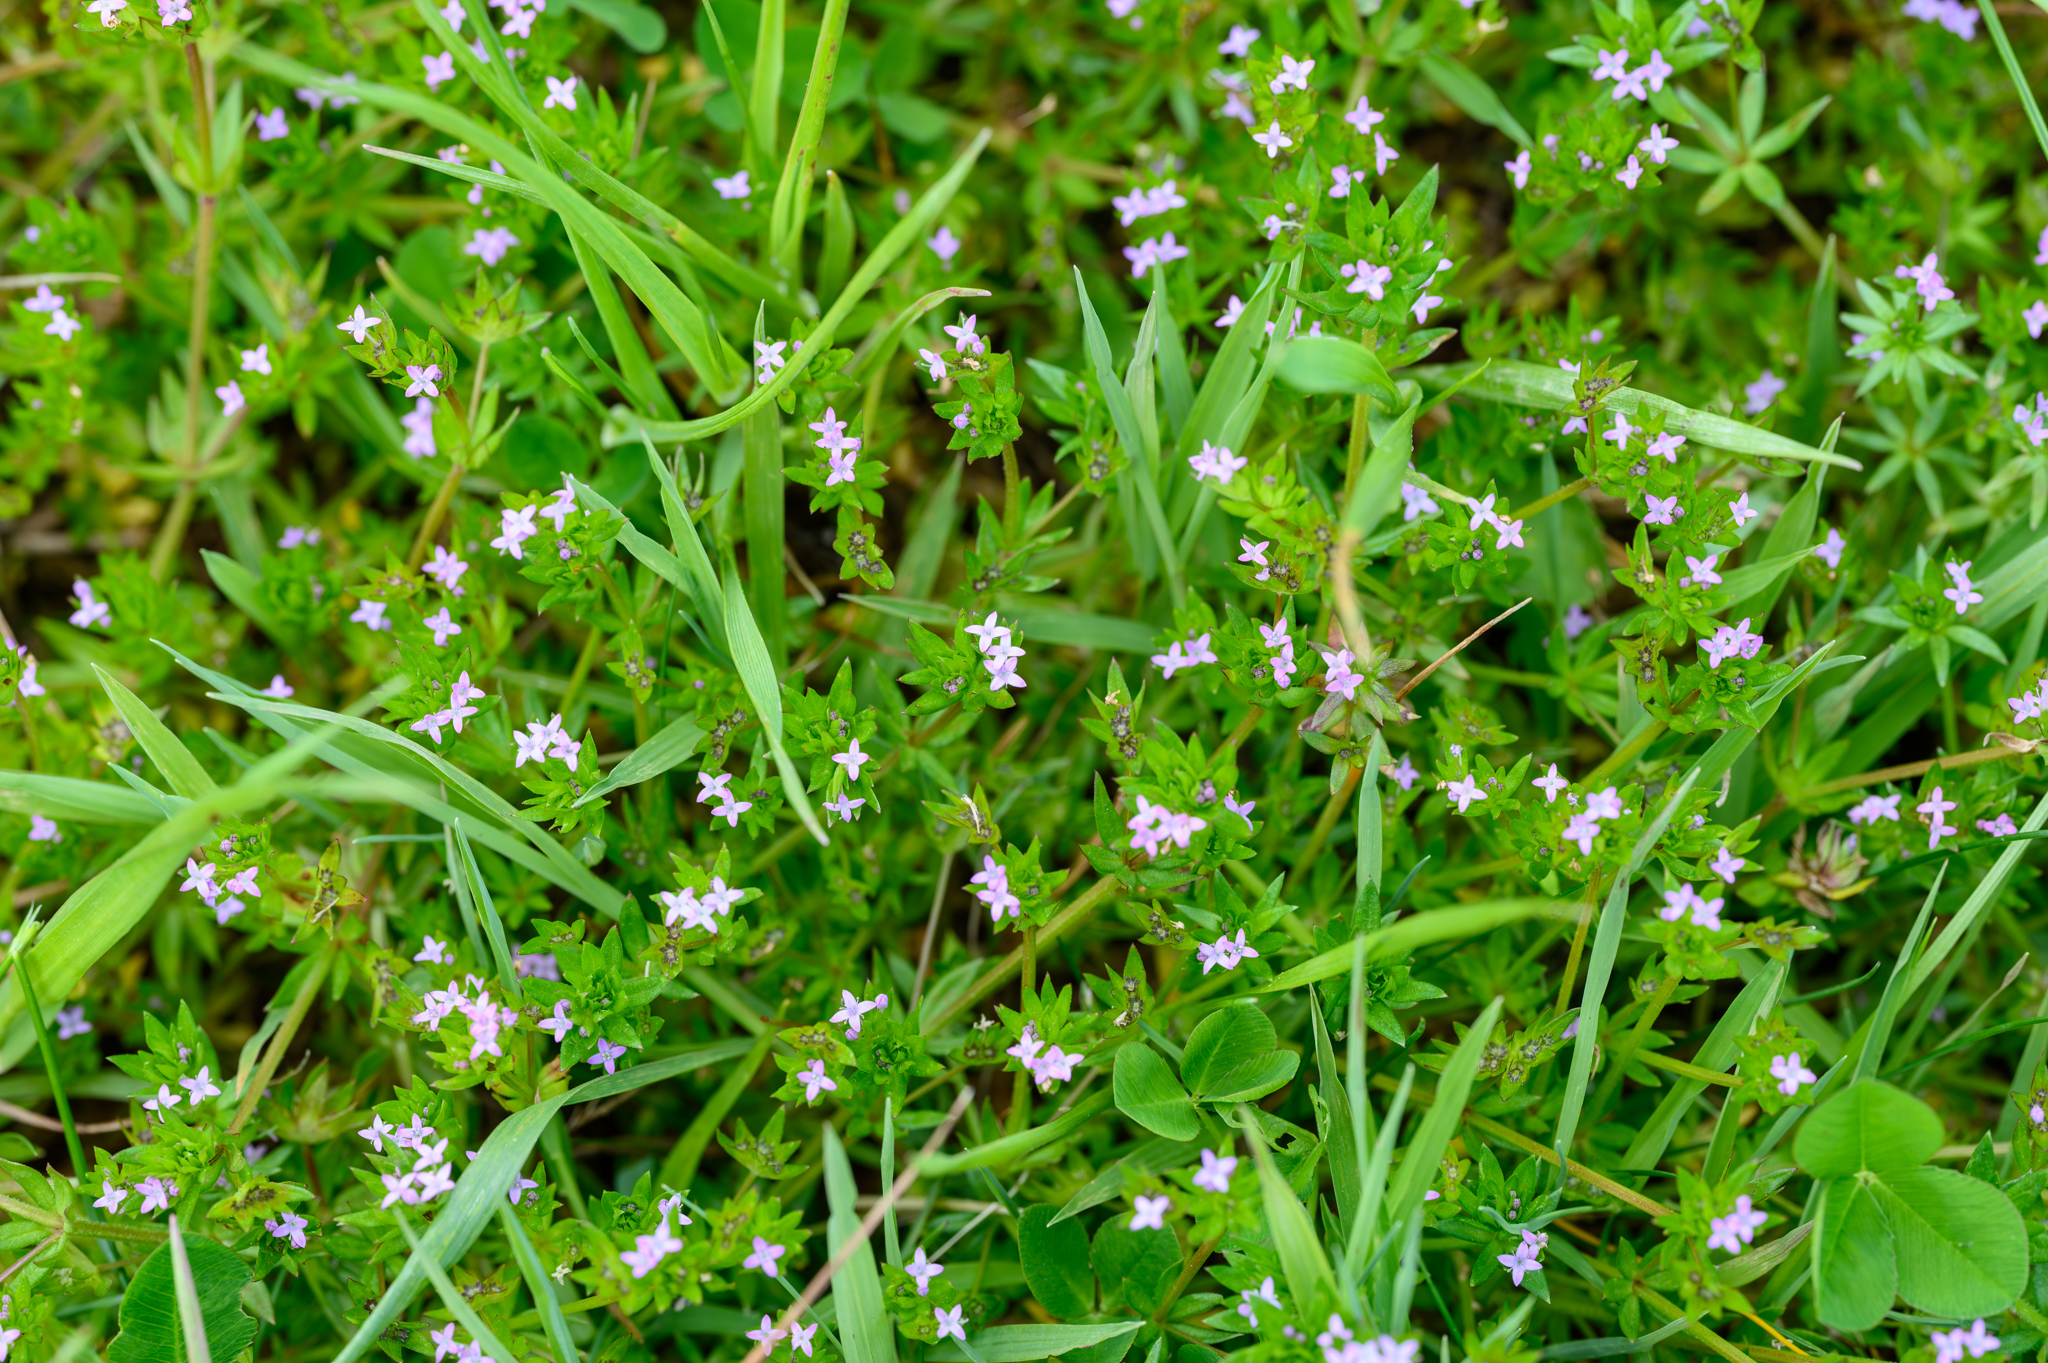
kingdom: Plantae
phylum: Tracheophyta
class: Magnoliopsida
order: Gentianales
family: Rubiaceae
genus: Sherardia
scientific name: Sherardia arvensis
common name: Field madder
